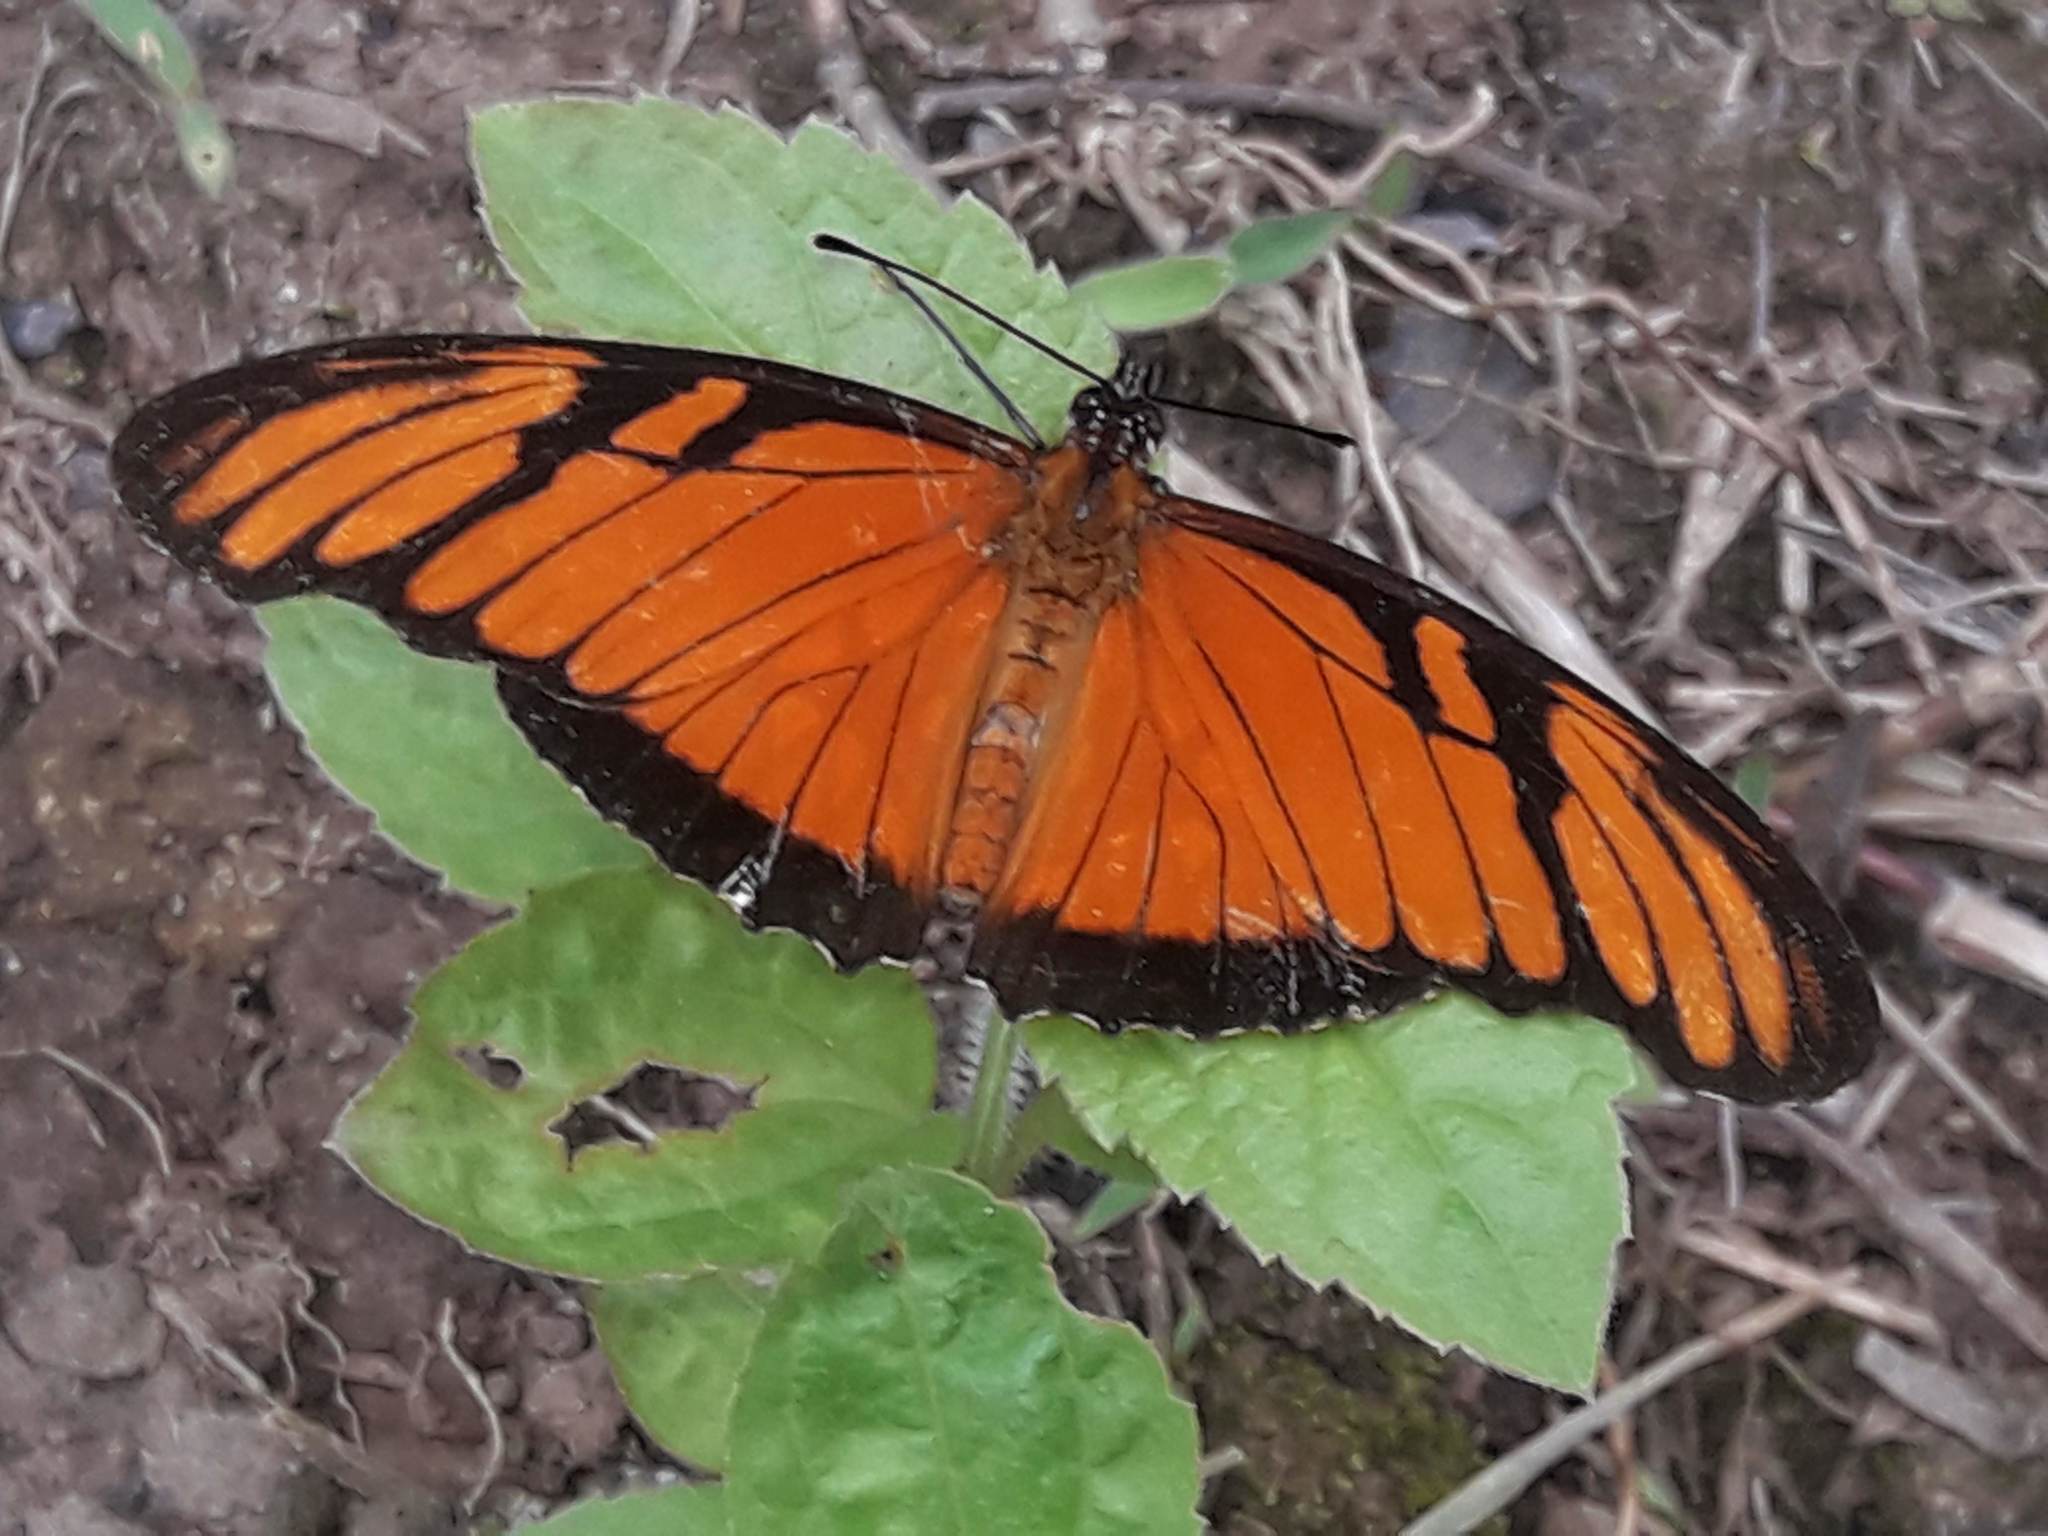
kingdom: Animalia
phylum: Arthropoda
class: Insecta
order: Lepidoptera
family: Nymphalidae
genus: Dione
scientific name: Dione juno
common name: Juno silverspot
